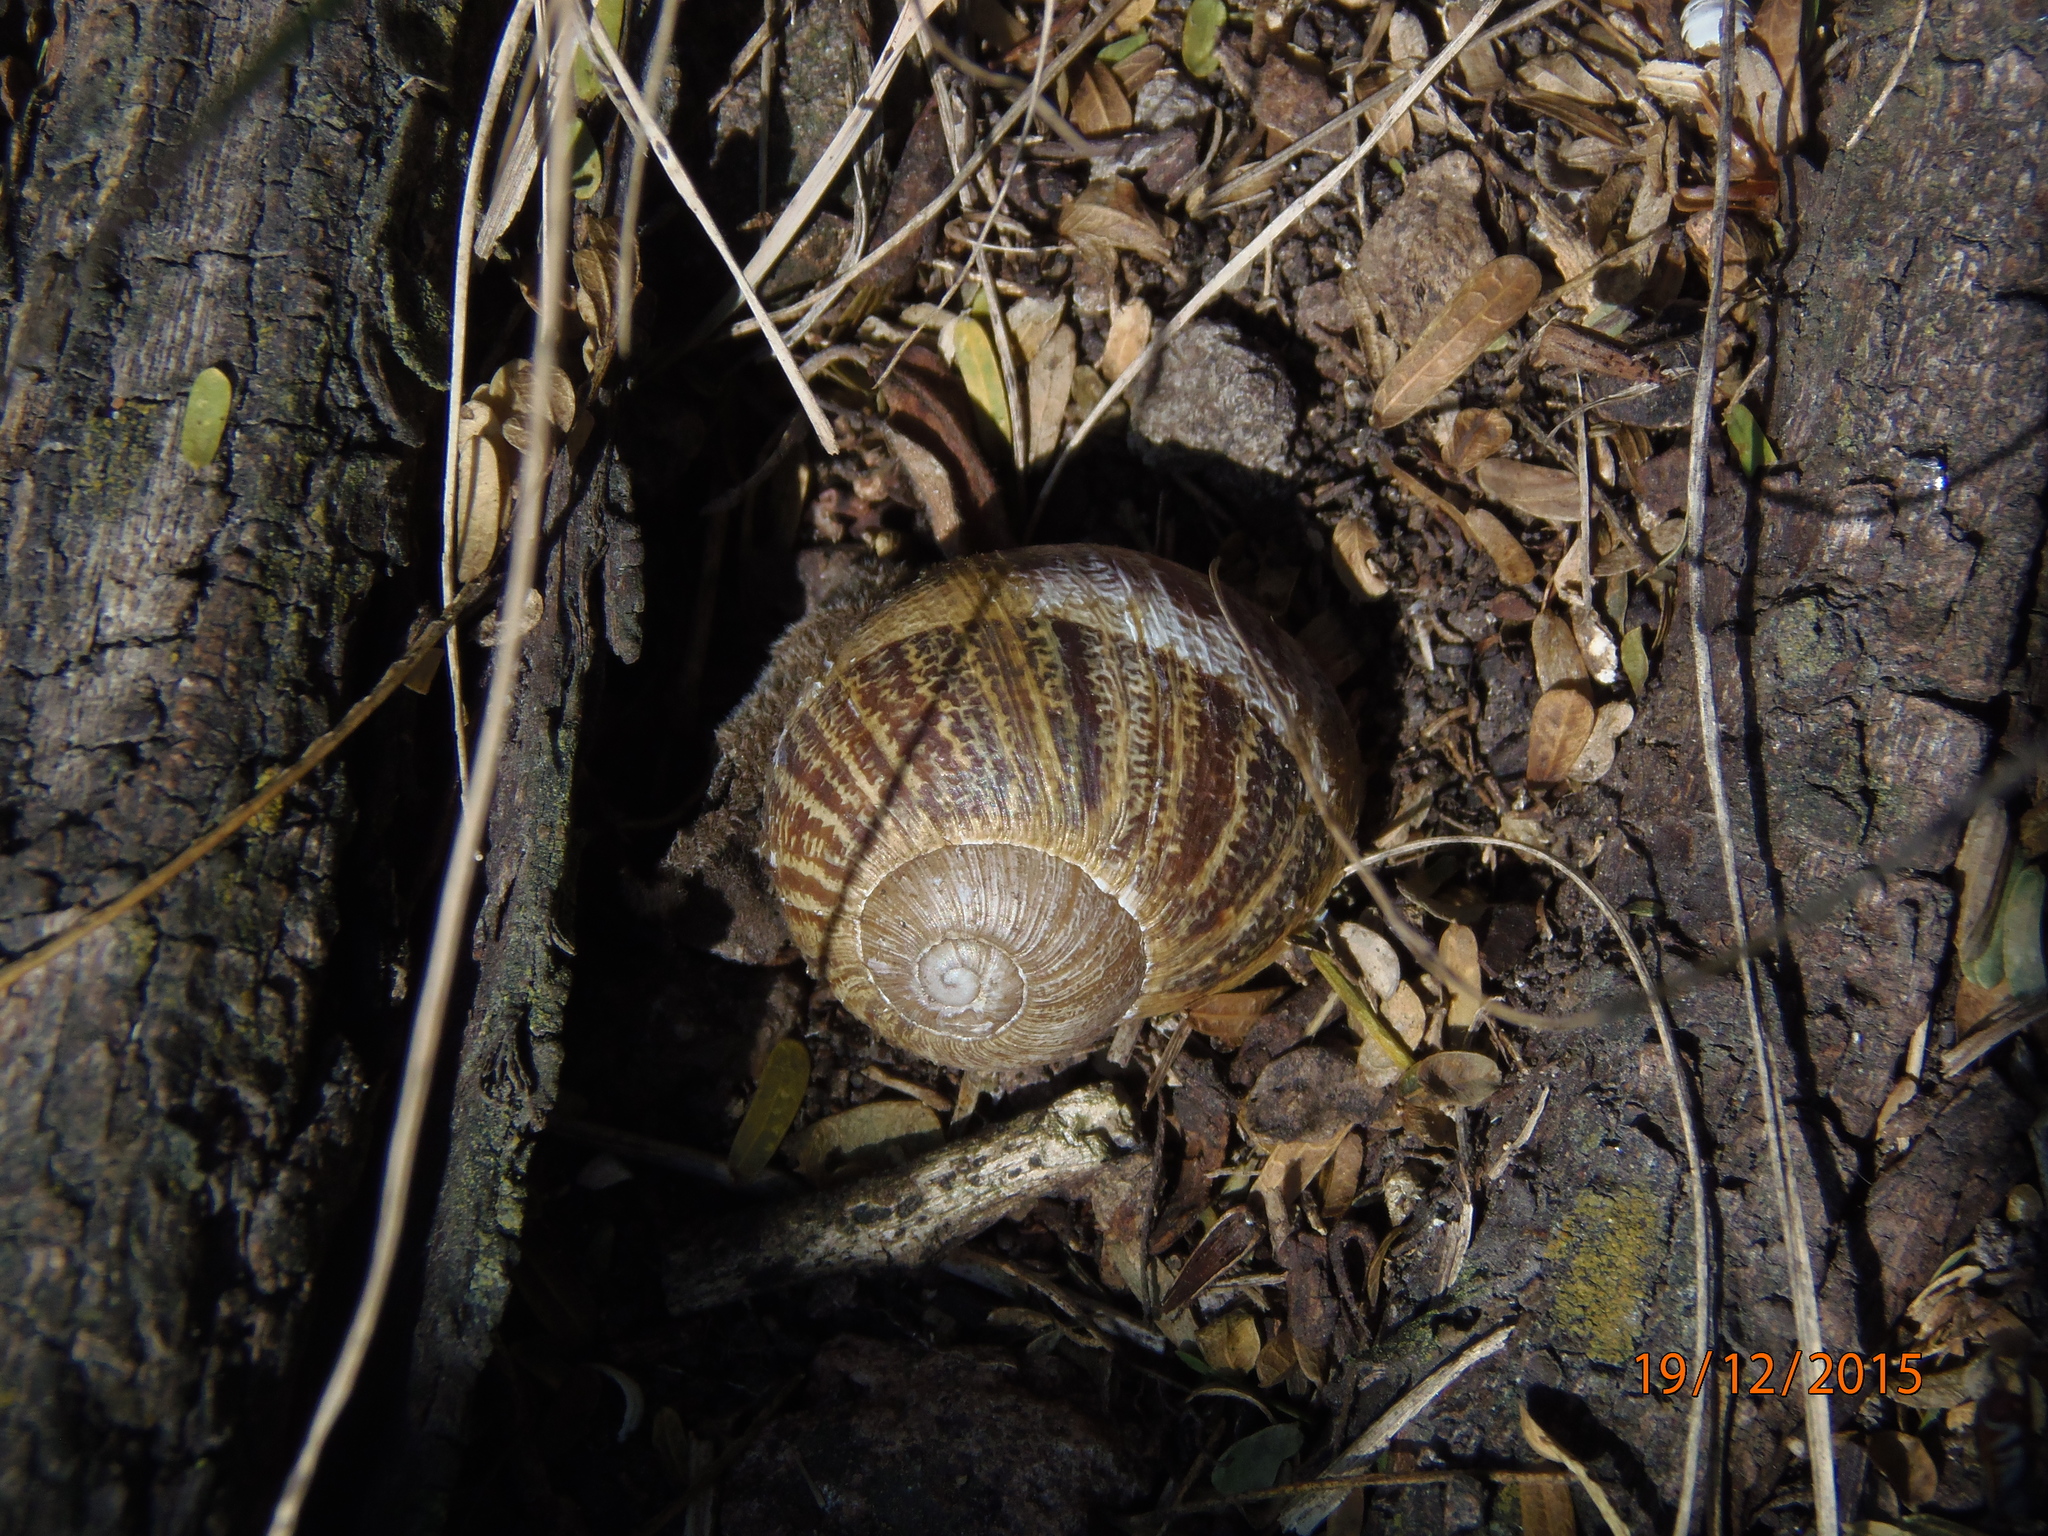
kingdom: Animalia
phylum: Mollusca
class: Gastropoda
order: Stylommatophora
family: Helicidae
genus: Cornu
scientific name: Cornu aspersum
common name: Brown garden snail
